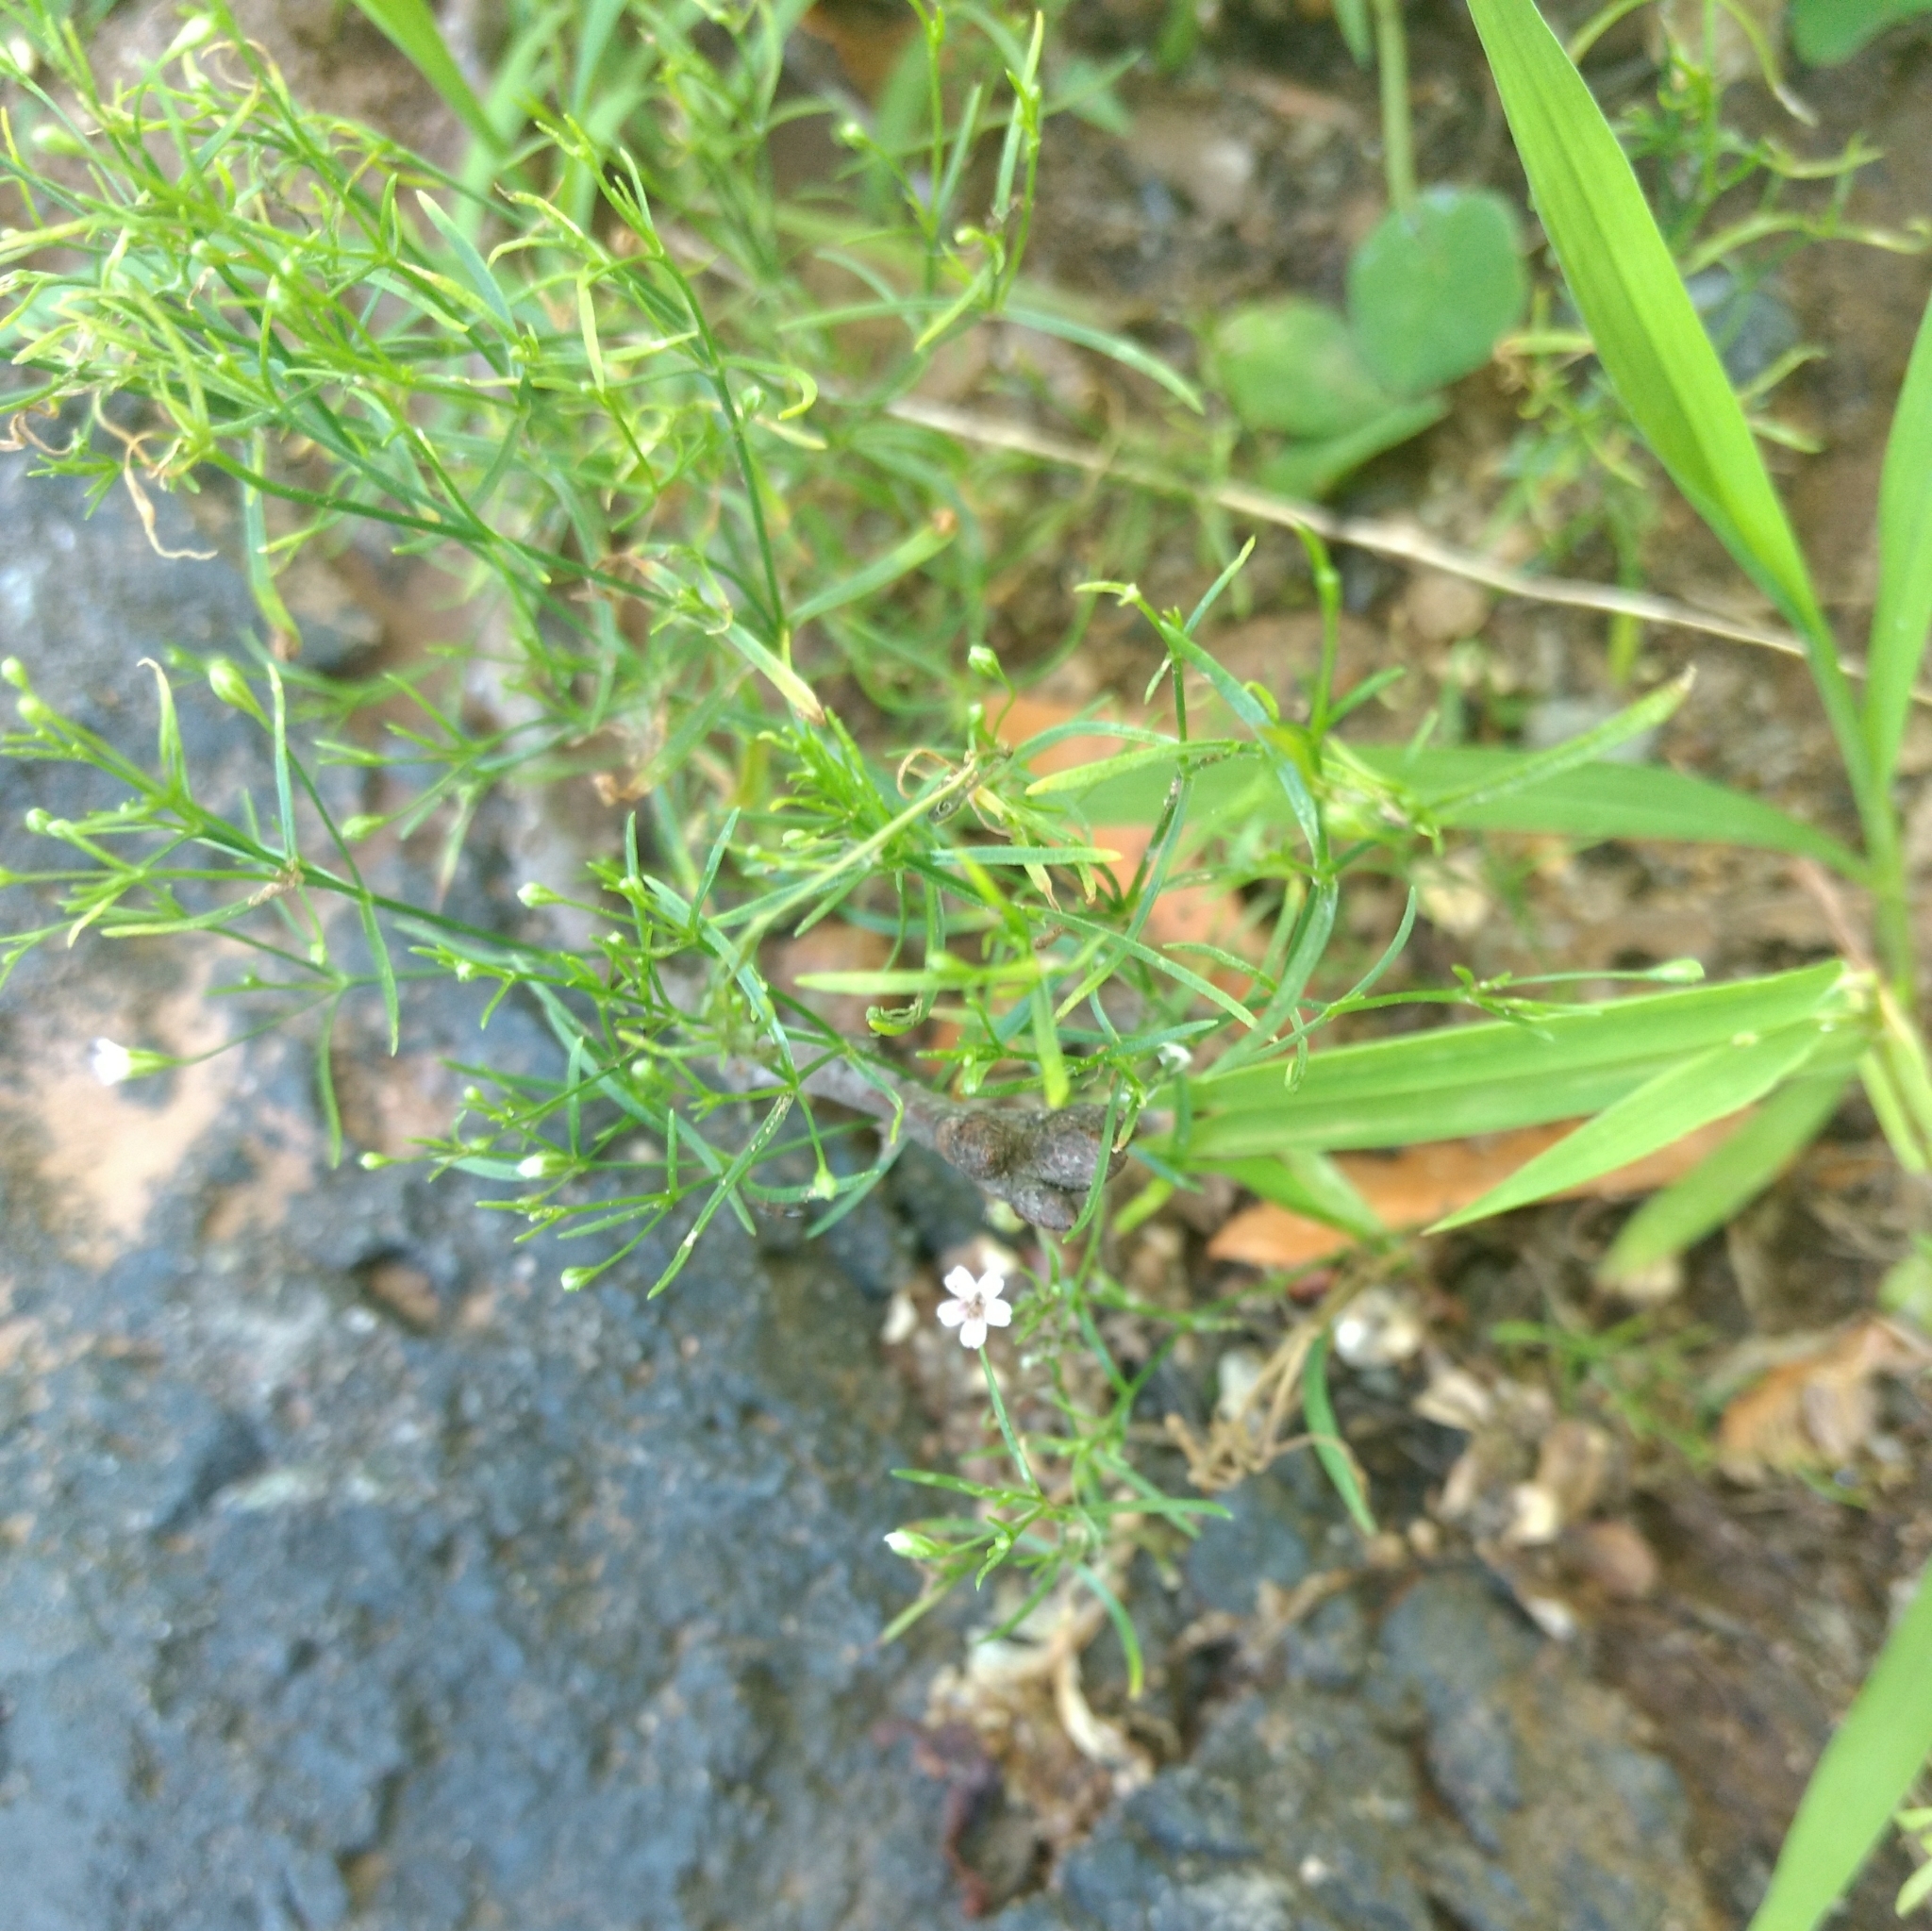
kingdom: Plantae
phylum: Tracheophyta
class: Magnoliopsida
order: Caryophyllales
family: Caryophyllaceae
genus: Psammophiliella
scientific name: Psammophiliella muralis
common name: Cushion baby's-breath
